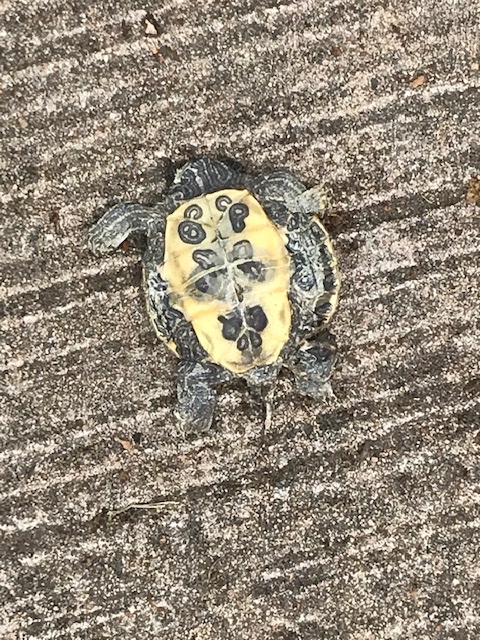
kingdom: Animalia
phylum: Chordata
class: Testudines
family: Emydidae
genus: Trachemys
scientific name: Trachemys scripta
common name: Slider
